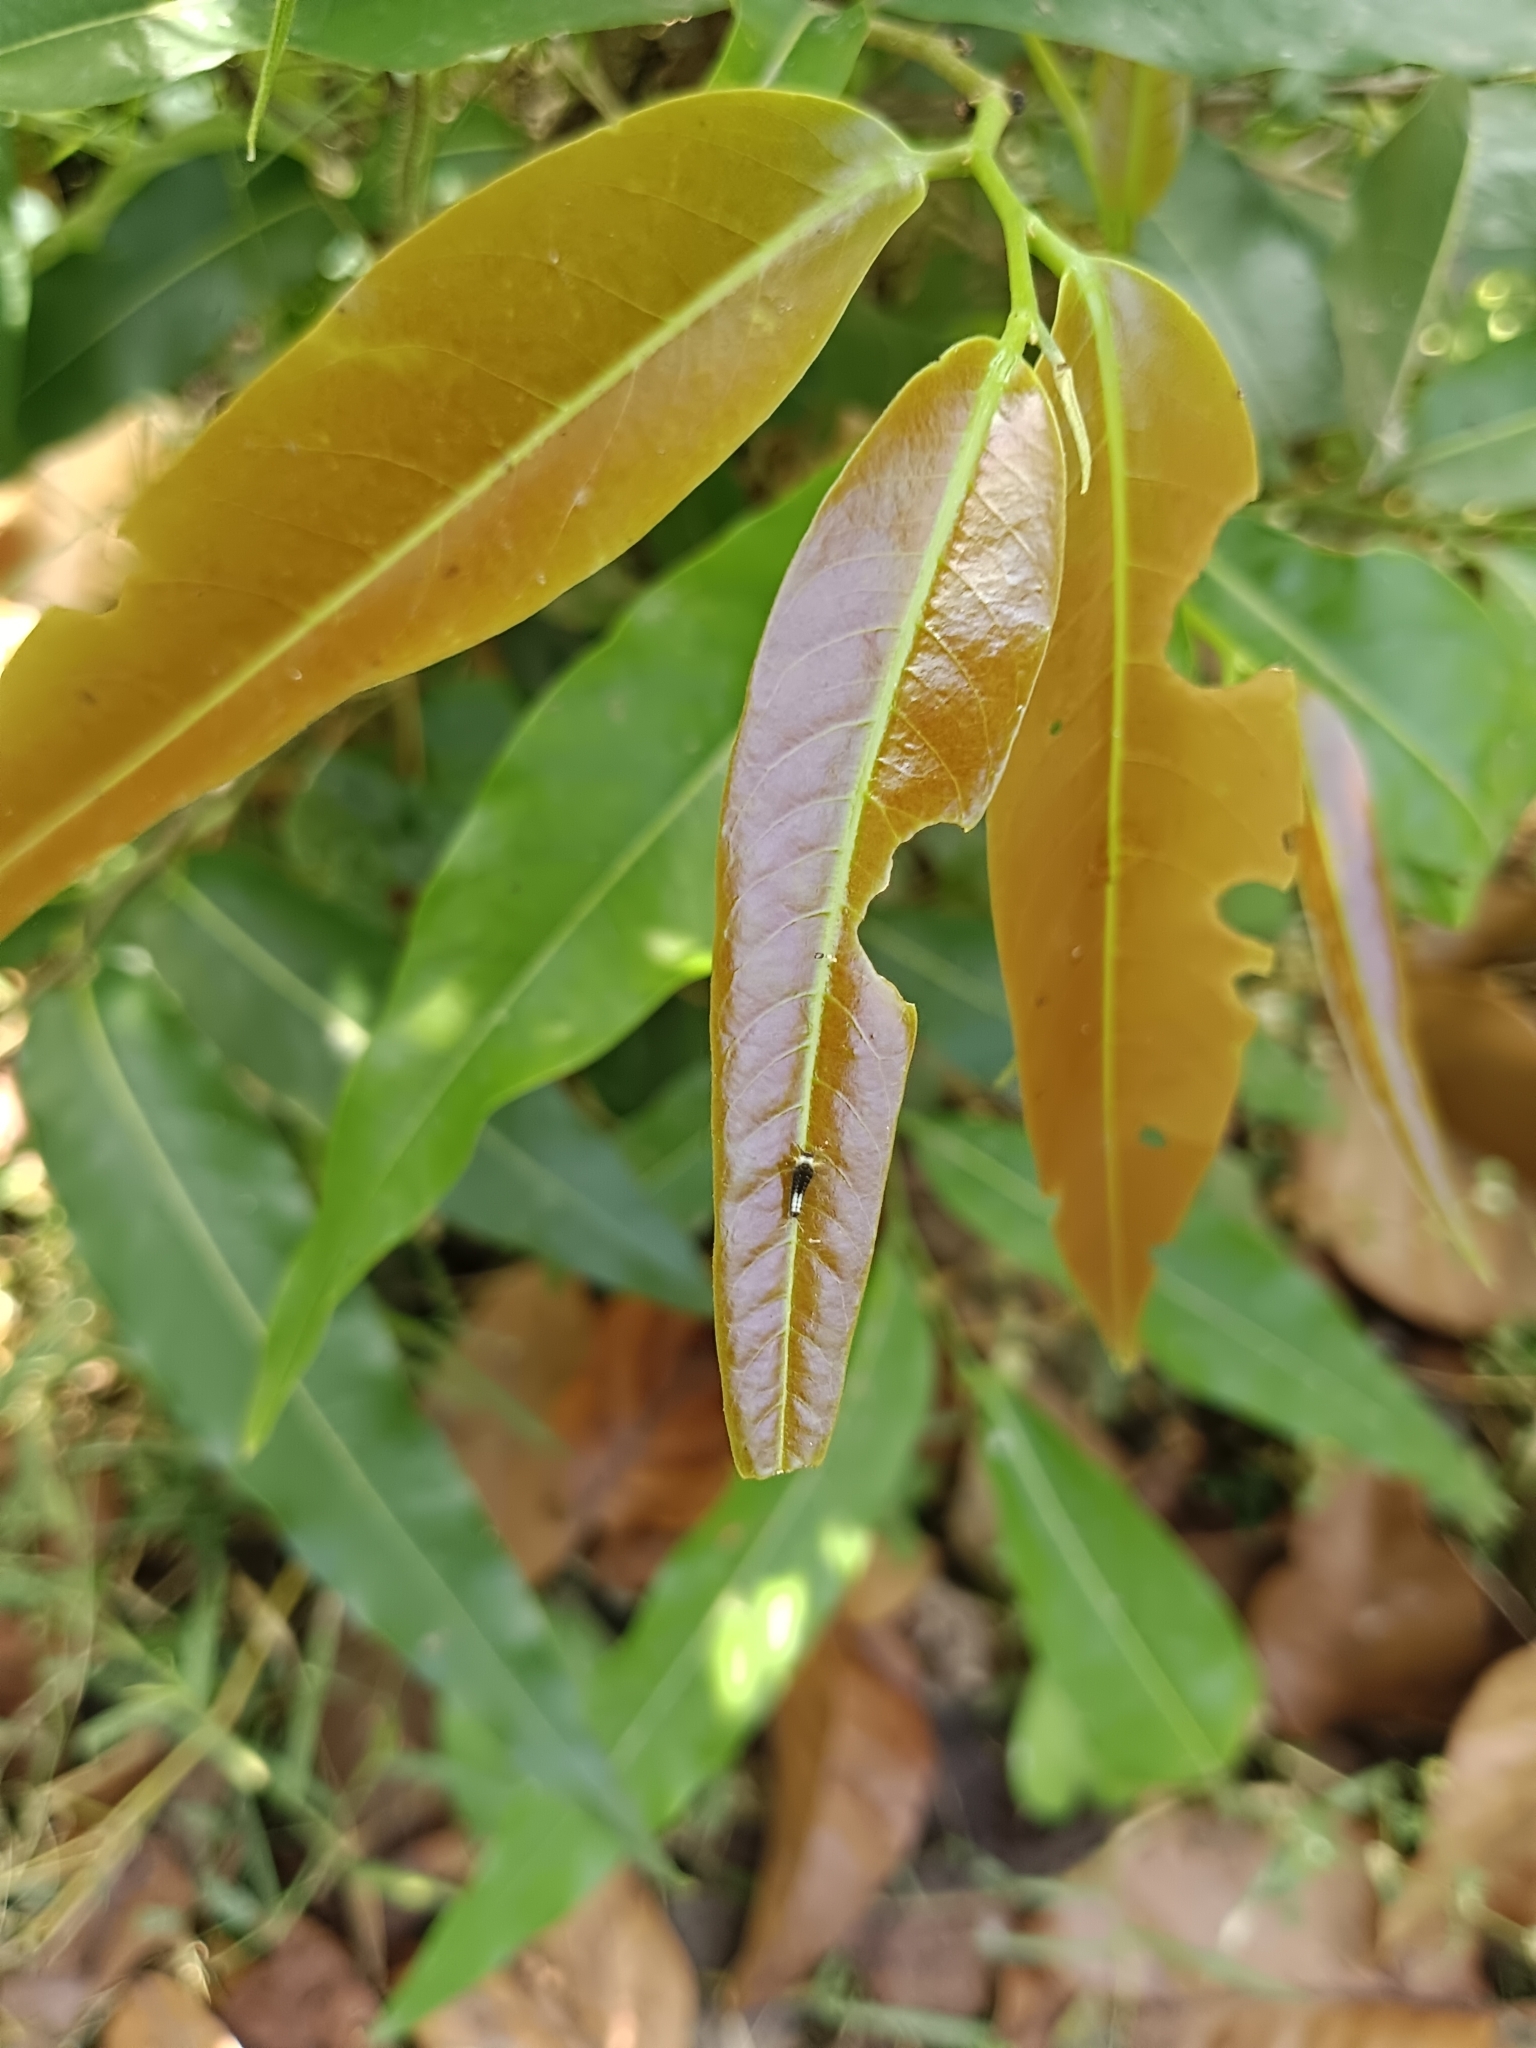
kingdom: Animalia
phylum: Arthropoda
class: Insecta
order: Lepidoptera
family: Papilionidae
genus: Graphium
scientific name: Graphium agamemnon
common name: Tailed jay
